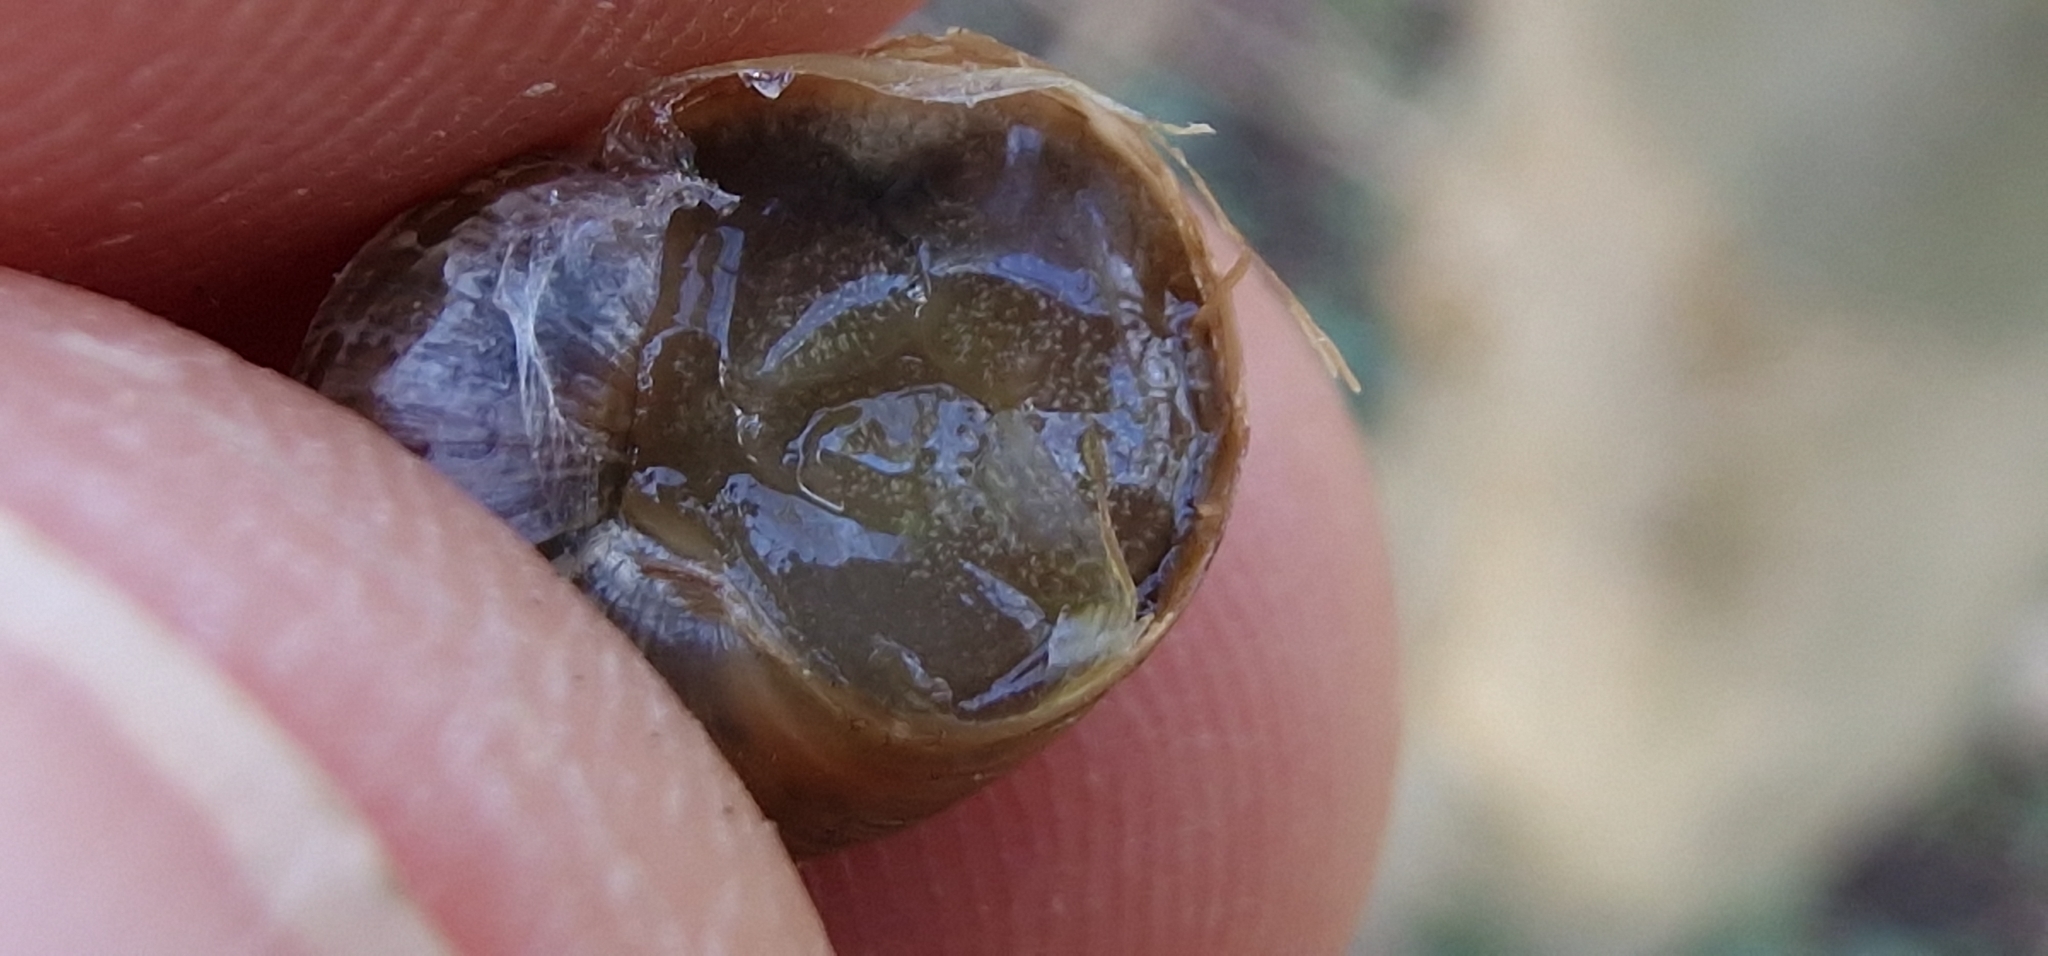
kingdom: Animalia
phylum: Mollusca
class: Gastropoda
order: Stylommatophora
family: Helicidae
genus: Cornu
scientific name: Cornu aspersum
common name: Brown garden snail
